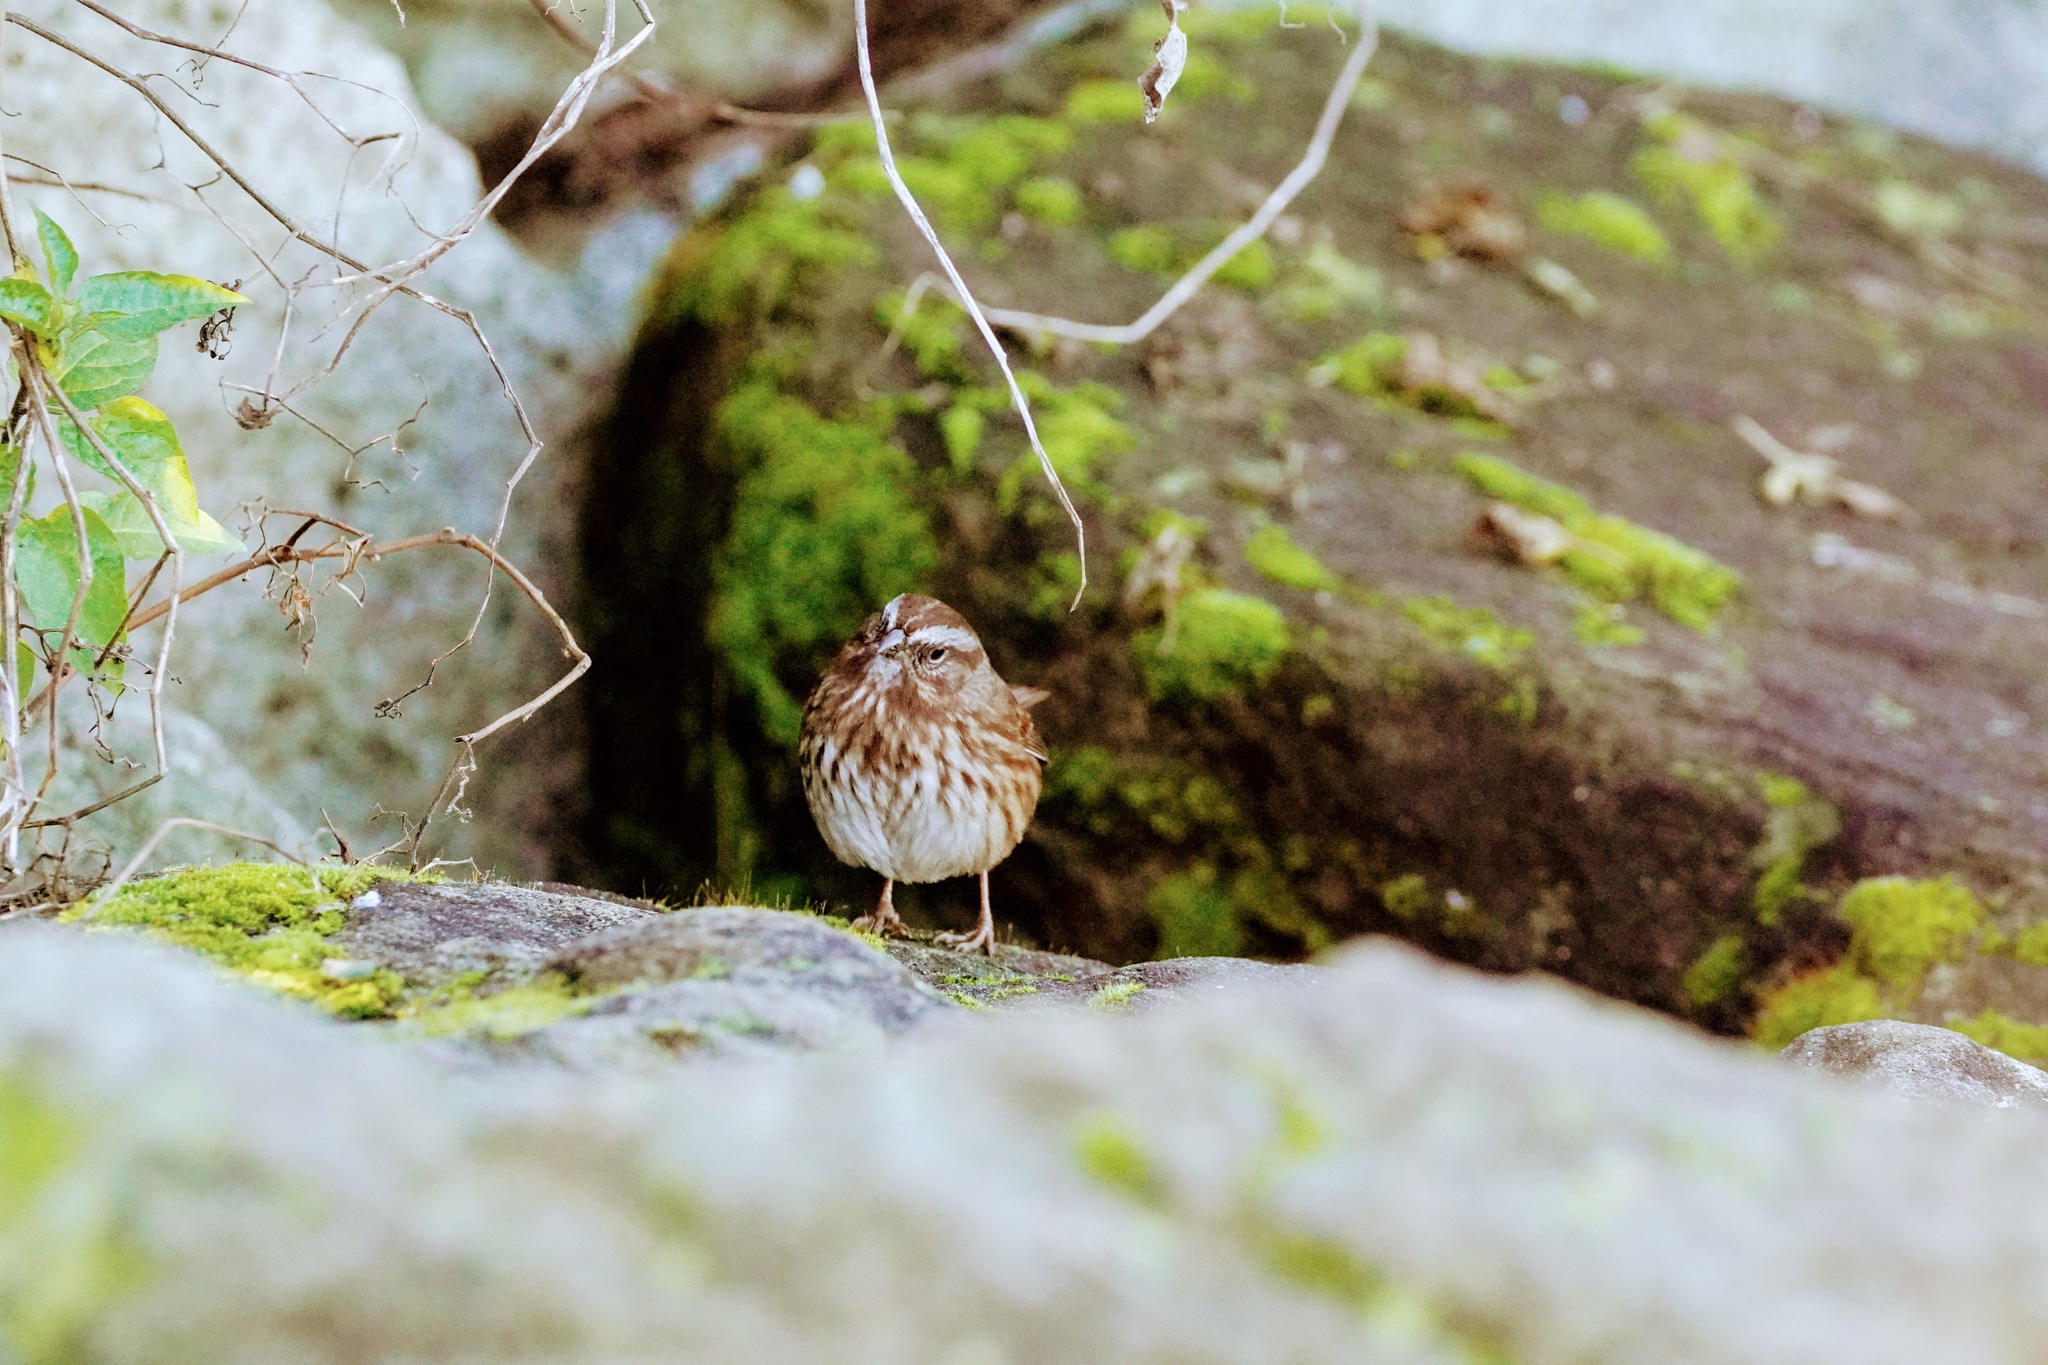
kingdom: Animalia
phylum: Chordata
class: Aves
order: Passeriformes
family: Passerellidae
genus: Melospiza
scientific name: Melospiza melodia
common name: Song sparrow
